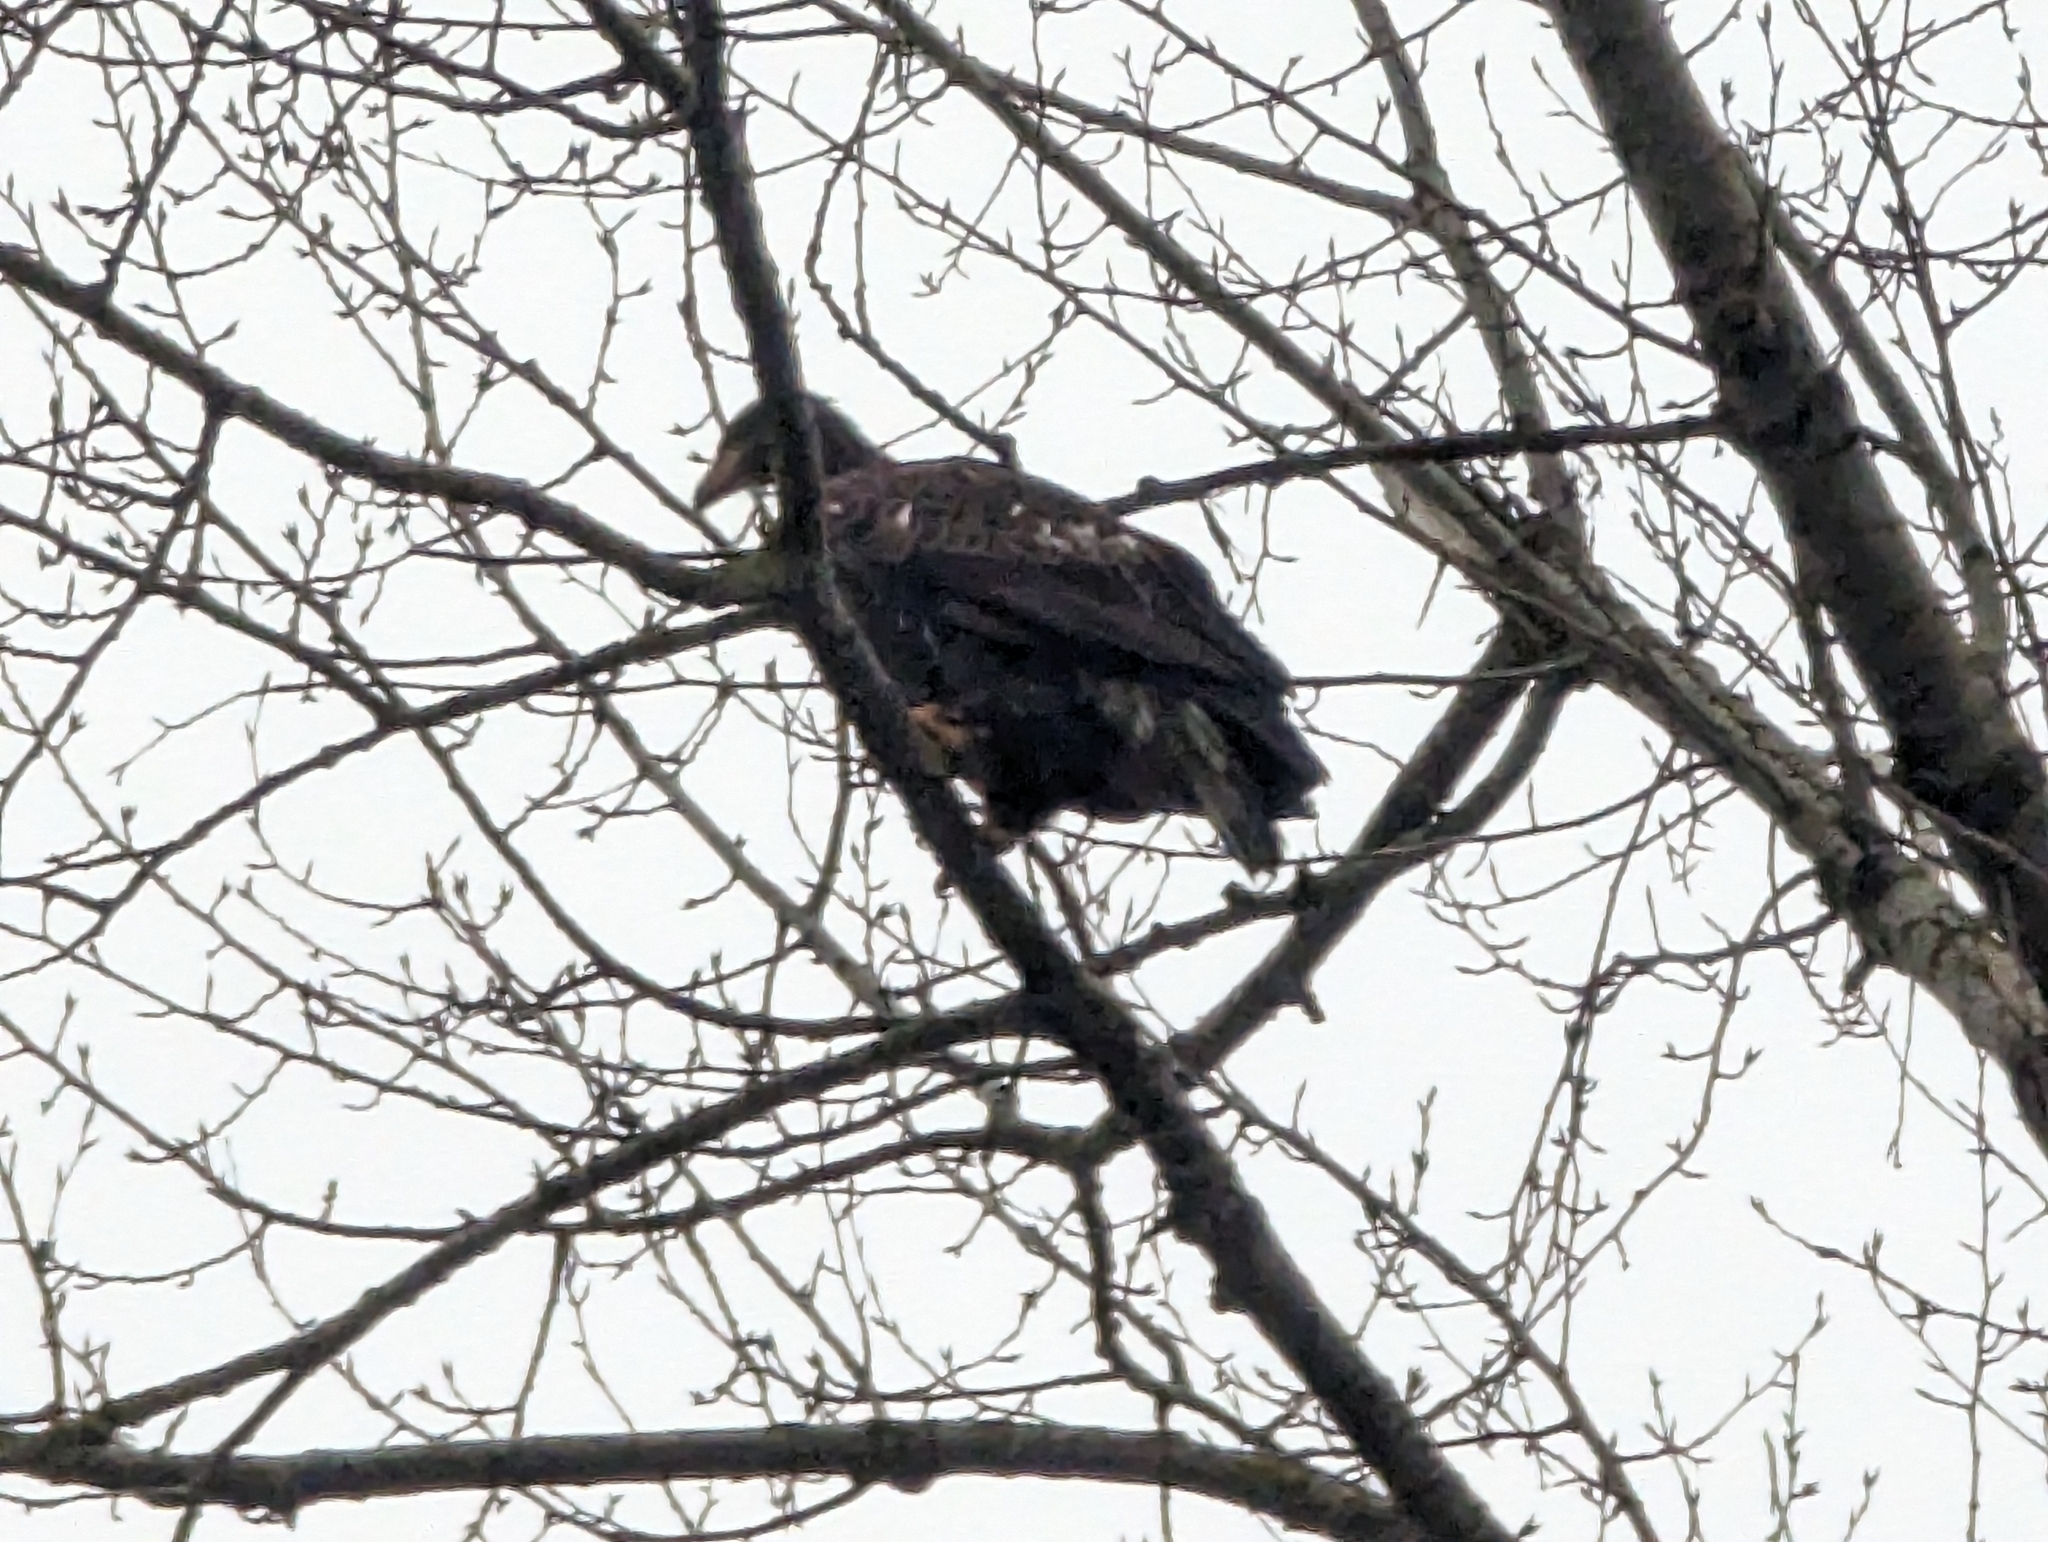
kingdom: Animalia
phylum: Chordata
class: Aves
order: Accipitriformes
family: Accipitridae
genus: Haliaeetus
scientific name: Haliaeetus leucocephalus
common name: Bald eagle
